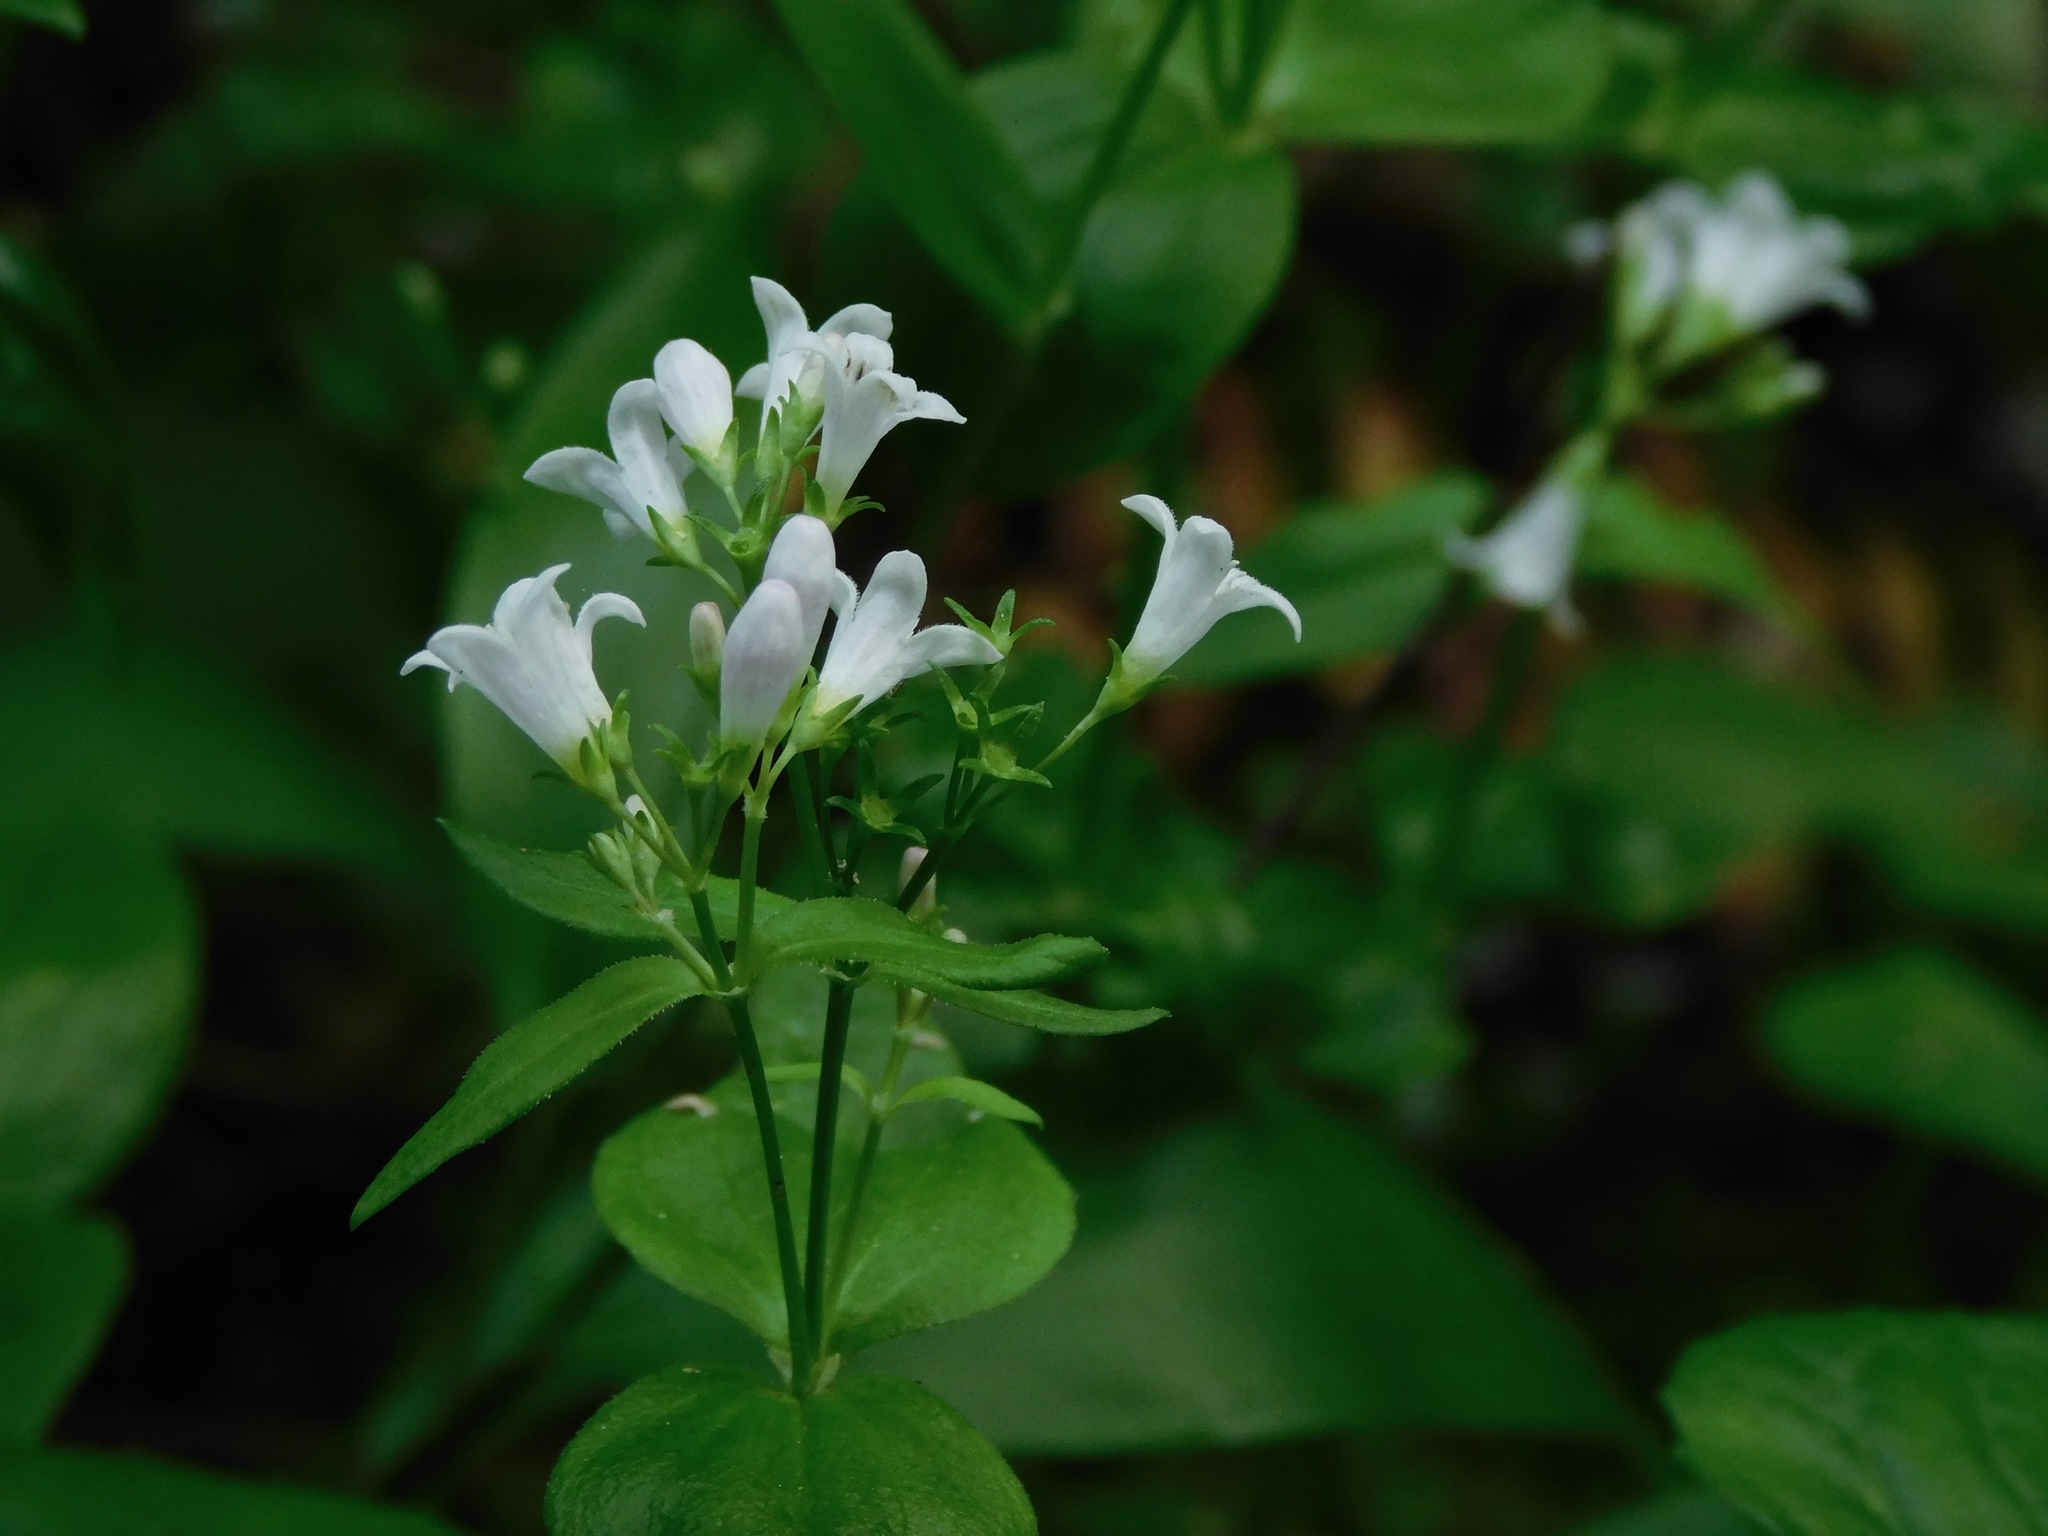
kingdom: Plantae
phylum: Tracheophyta
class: Magnoliopsida
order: Gentianales
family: Rubiaceae
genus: Houstonia
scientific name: Houstonia purpurea
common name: Summer bluet
